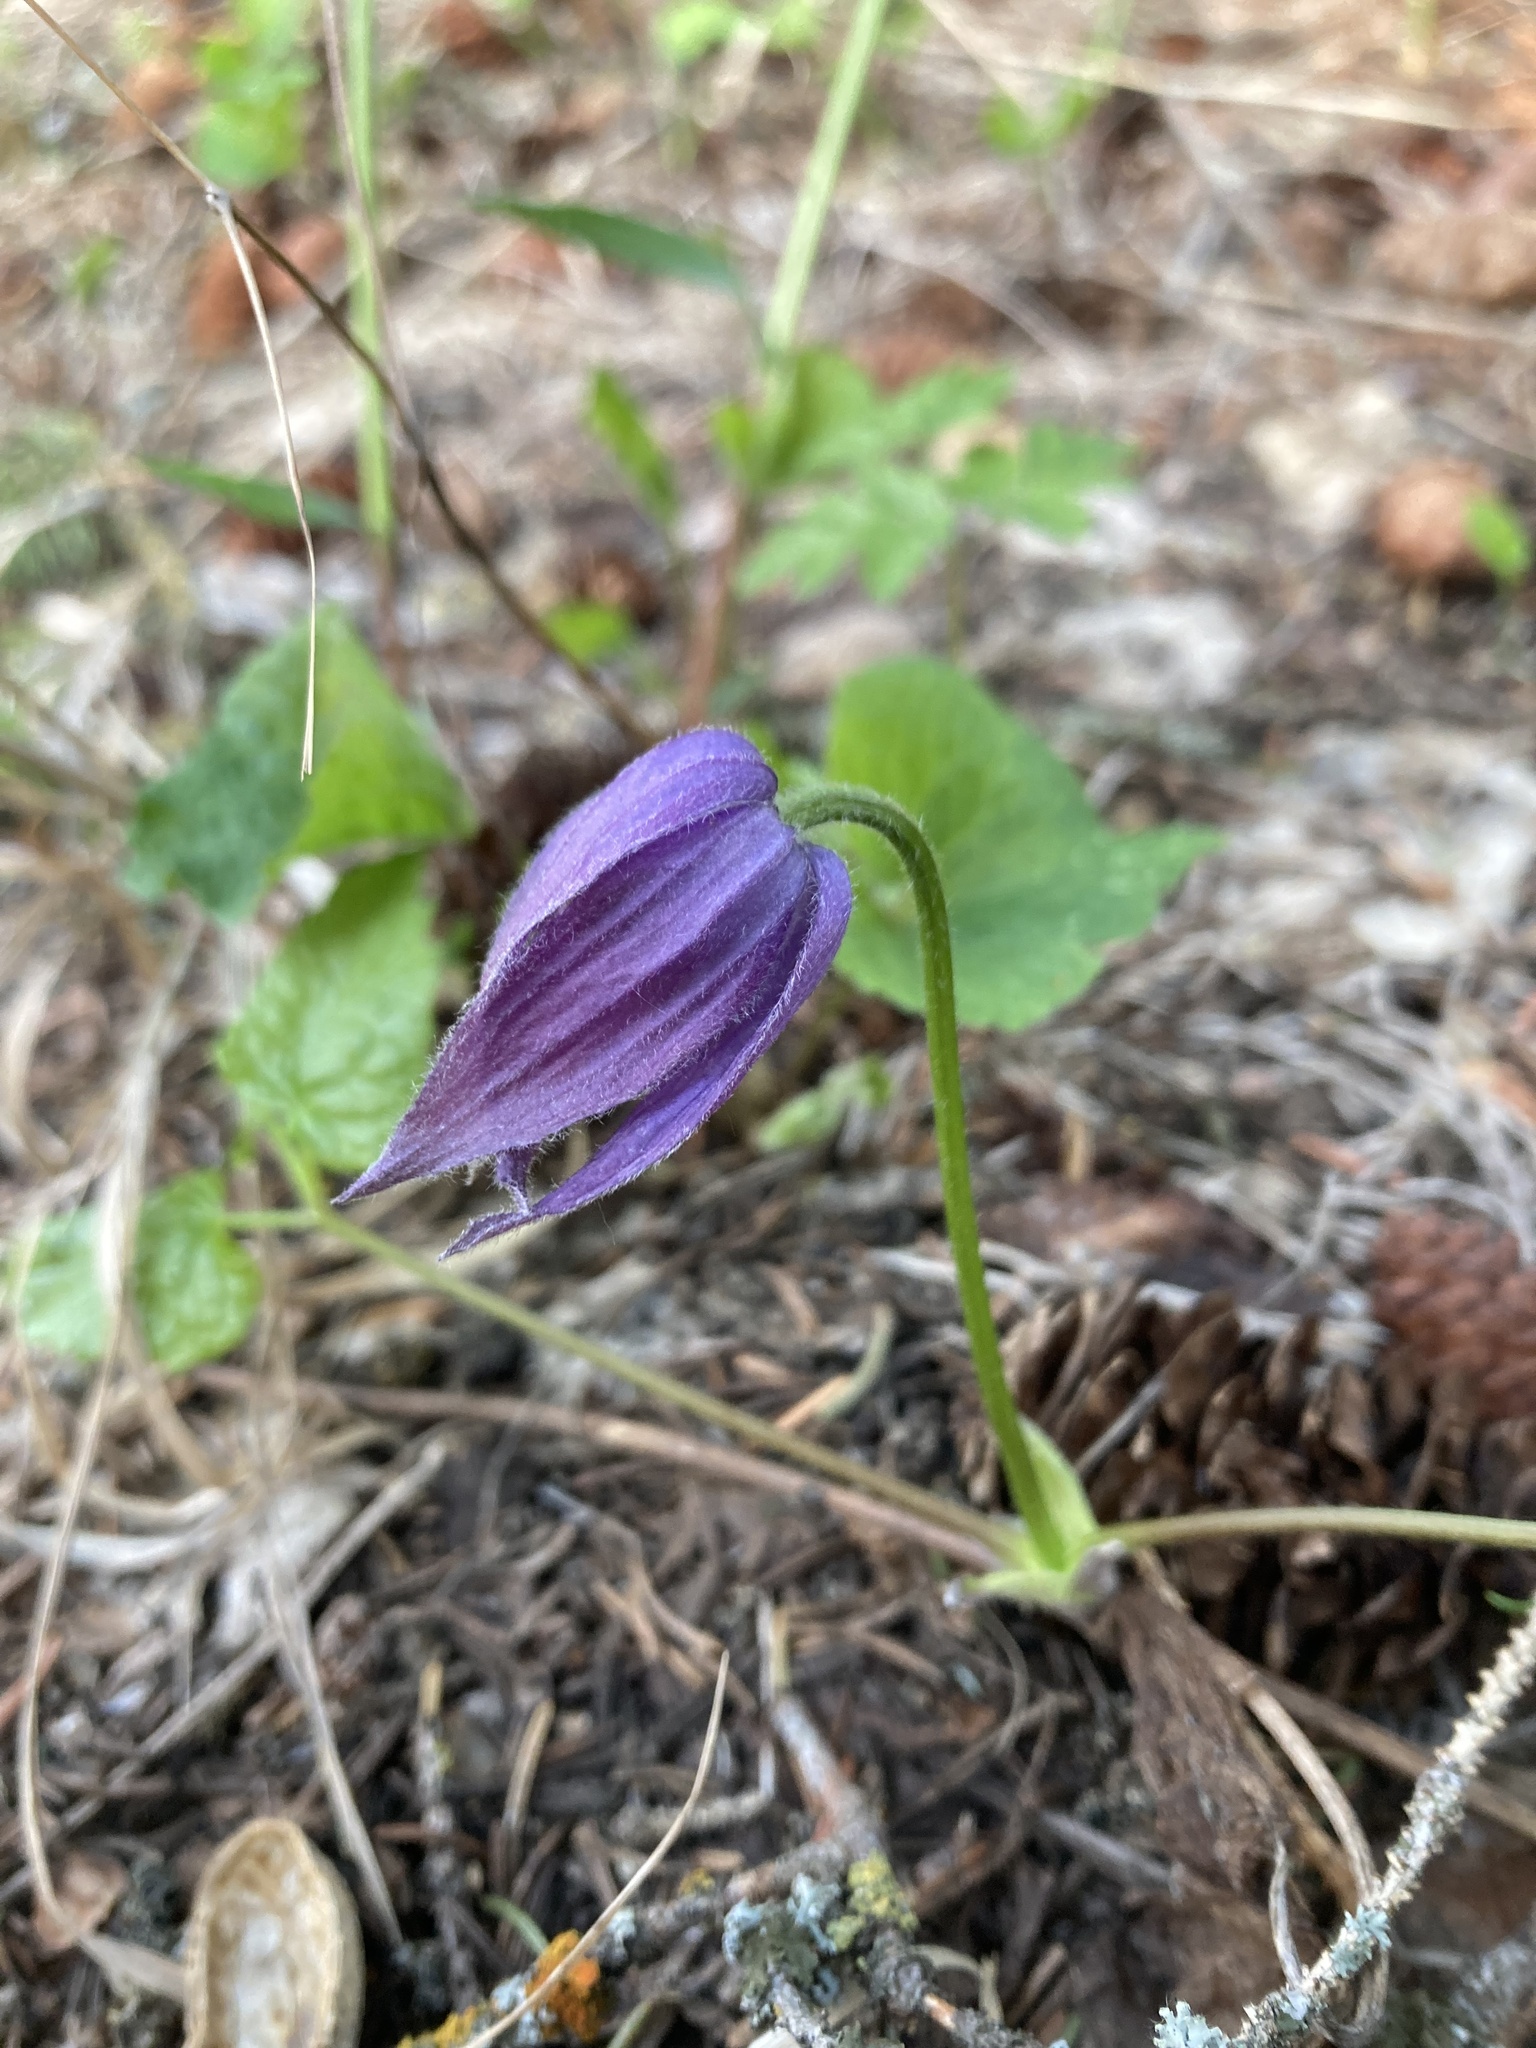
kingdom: Plantae
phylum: Tracheophyta
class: Magnoliopsida
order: Ranunculales
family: Ranunculaceae
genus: Clematis
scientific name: Clematis occidentalis
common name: Purple clematis
